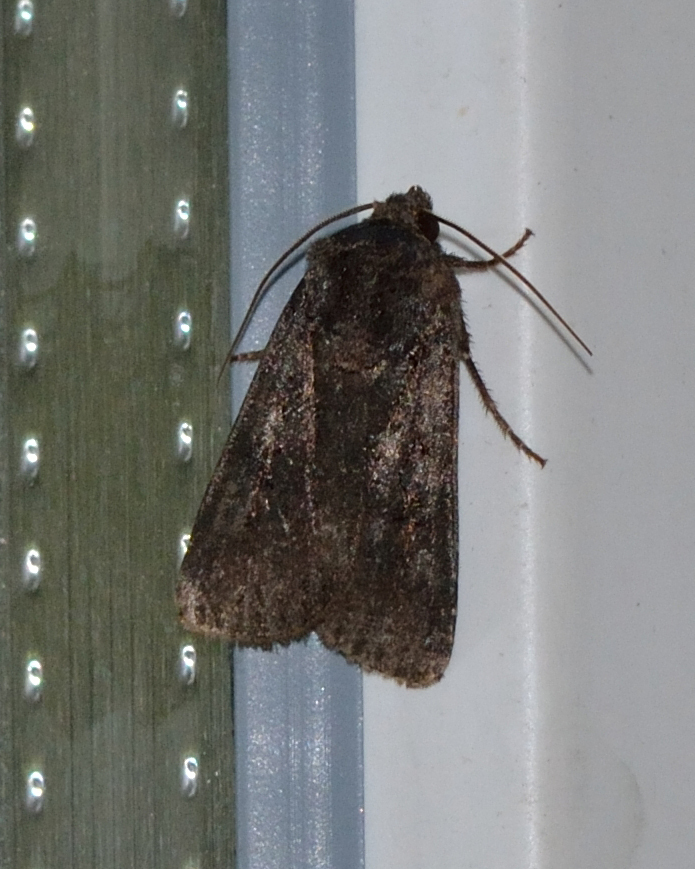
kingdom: Animalia
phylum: Arthropoda
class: Insecta
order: Lepidoptera
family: Noctuidae
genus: Euxoa
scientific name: Euxoa nigricans
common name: Garden dart
